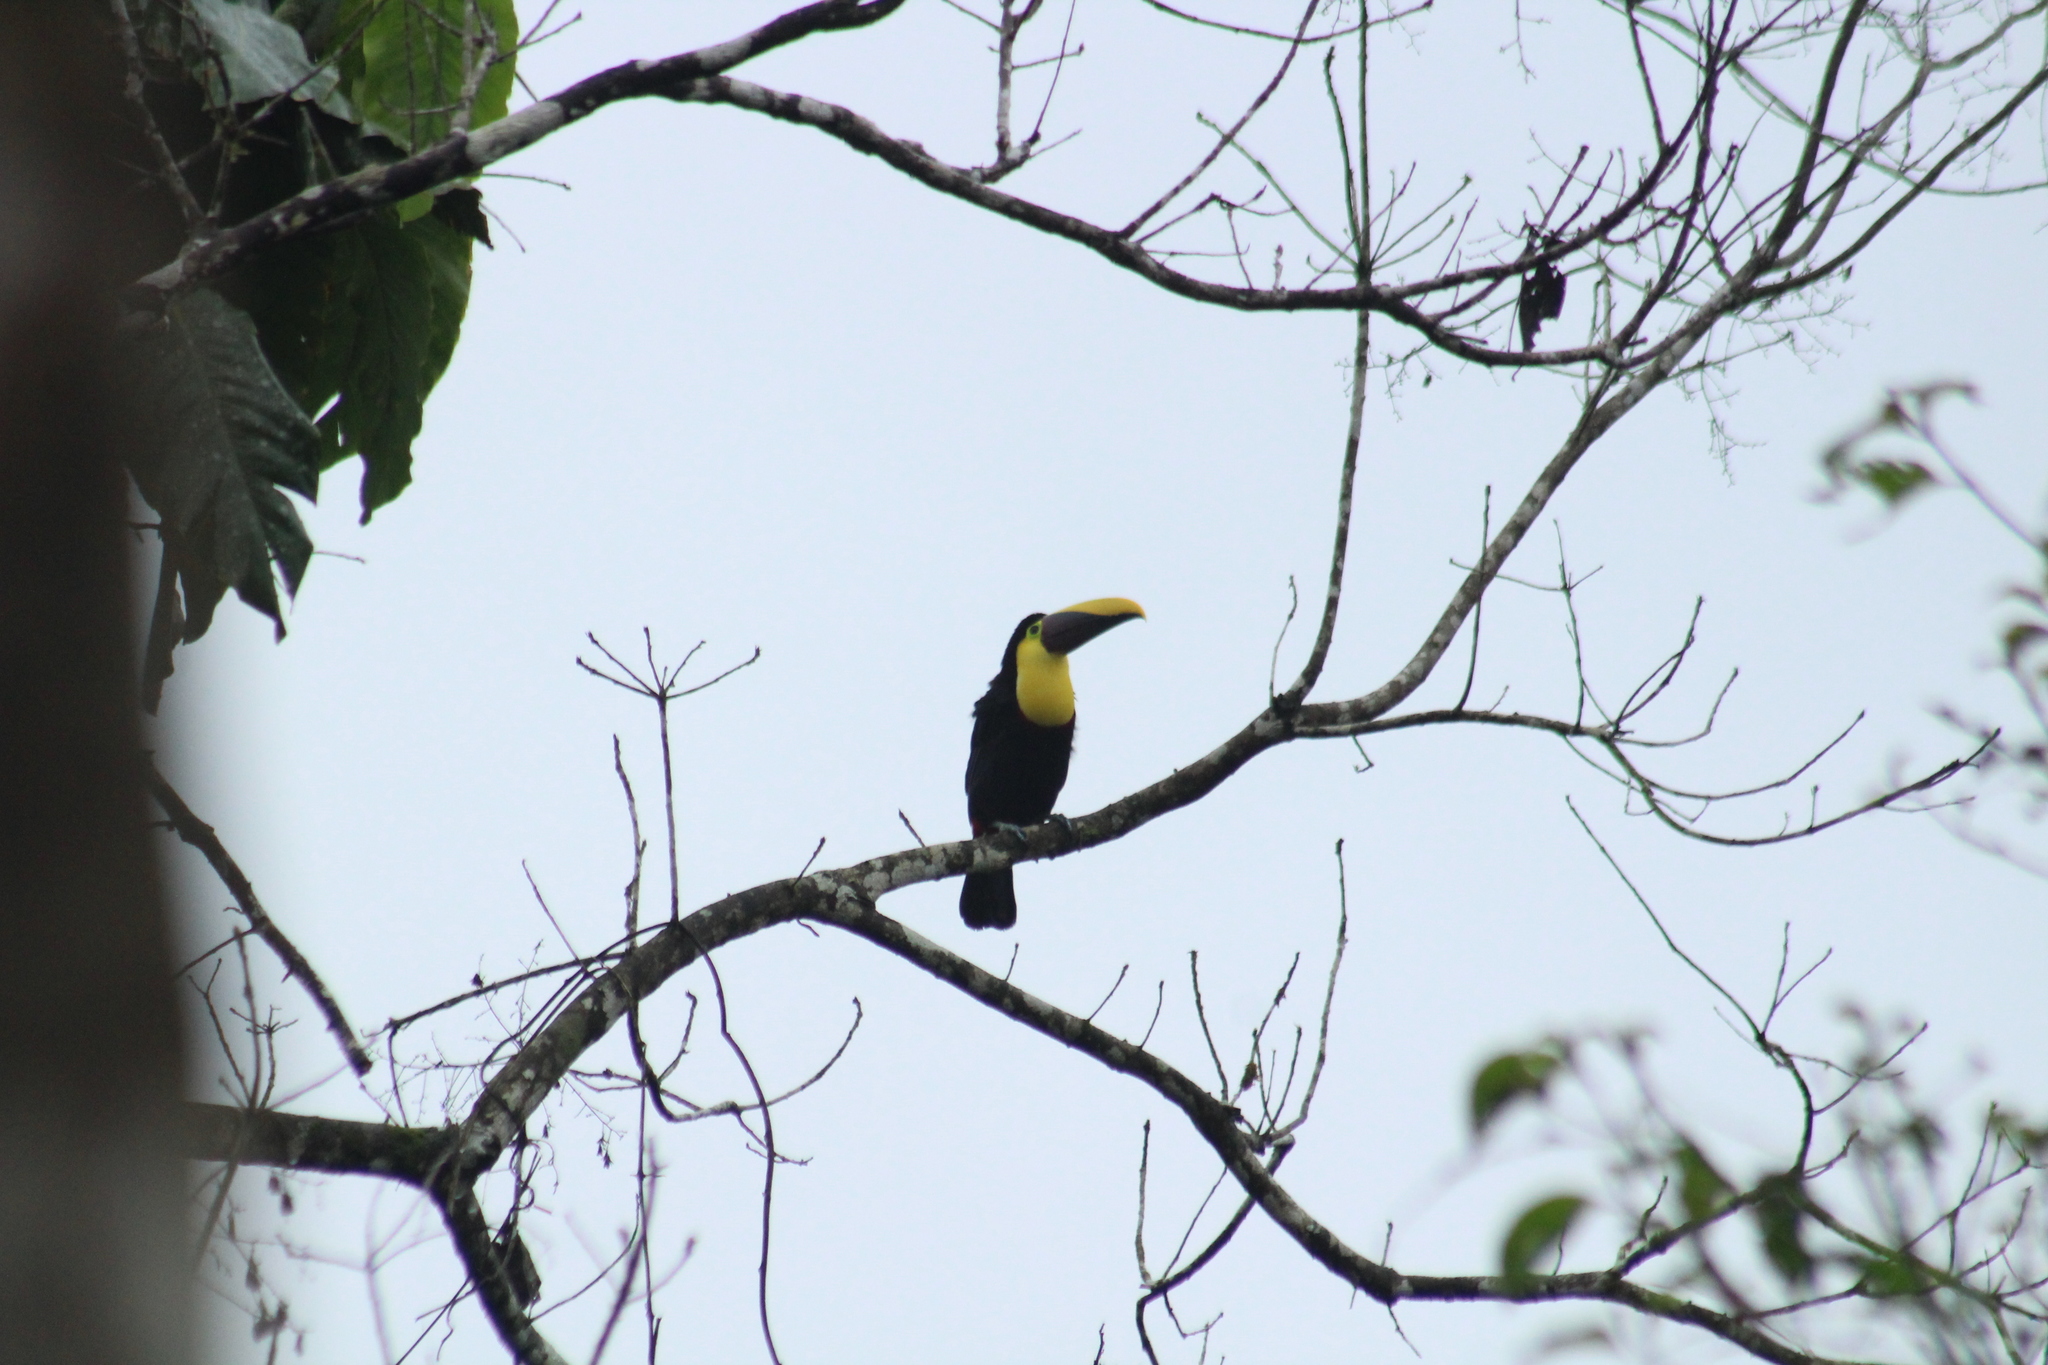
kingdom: Animalia
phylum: Chordata
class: Aves
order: Piciformes
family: Ramphastidae
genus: Ramphastos
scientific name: Ramphastos brevis
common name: Choco toucan
